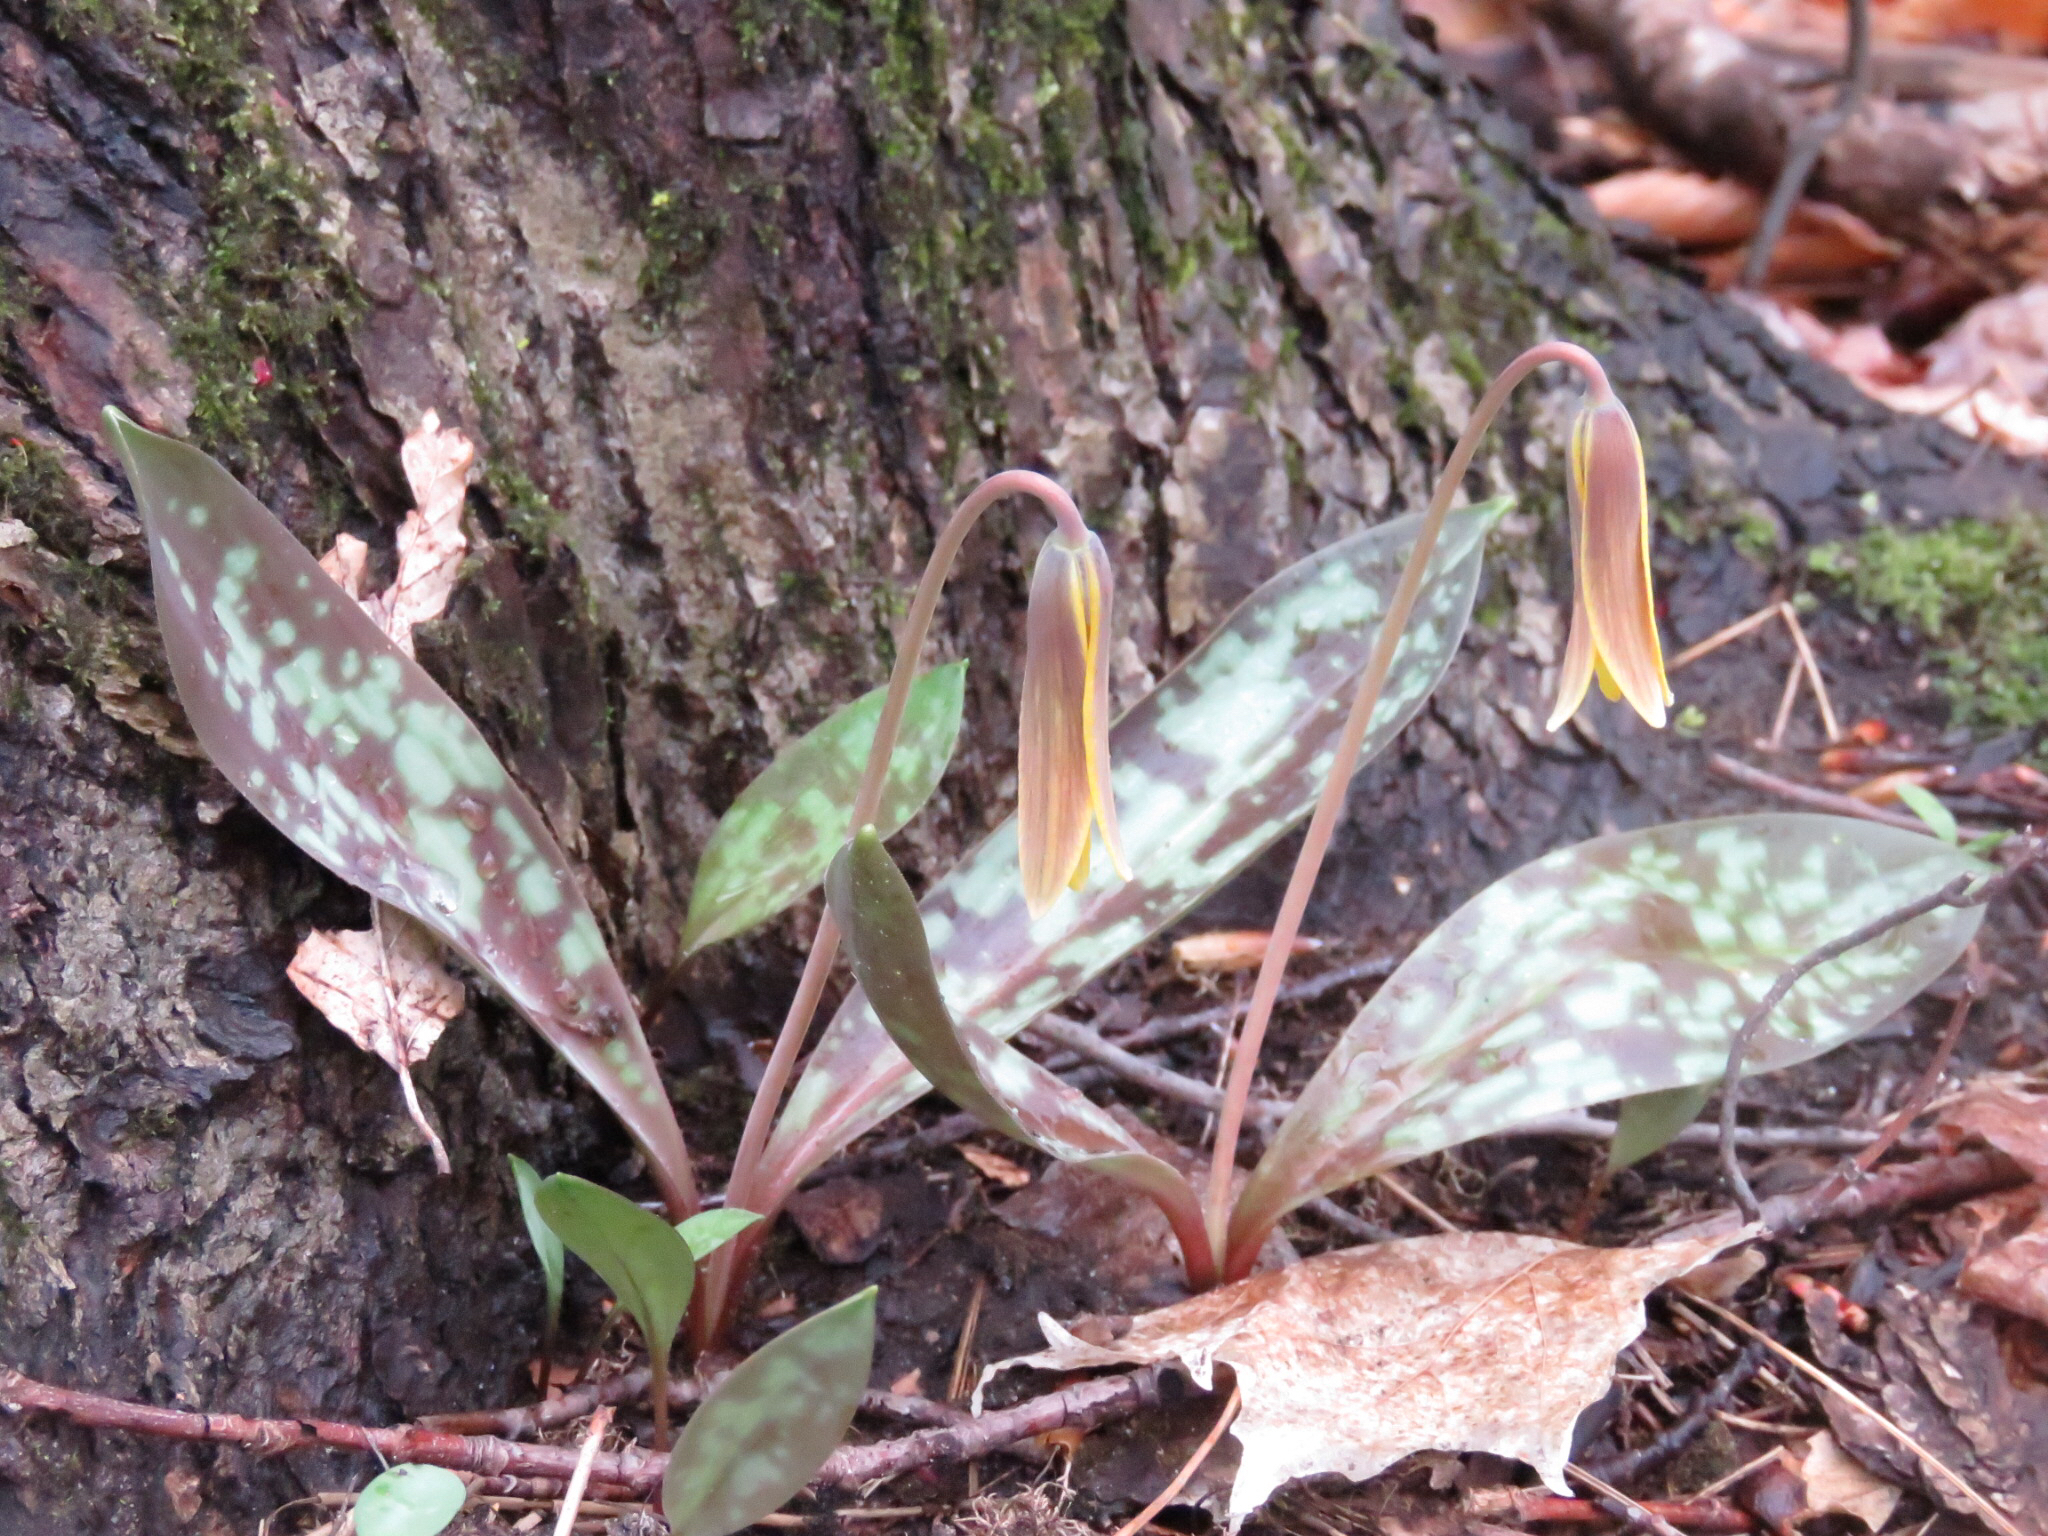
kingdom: Plantae
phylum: Tracheophyta
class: Liliopsida
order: Liliales
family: Liliaceae
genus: Erythronium
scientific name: Erythronium americanum
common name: Yellow adder's-tongue
